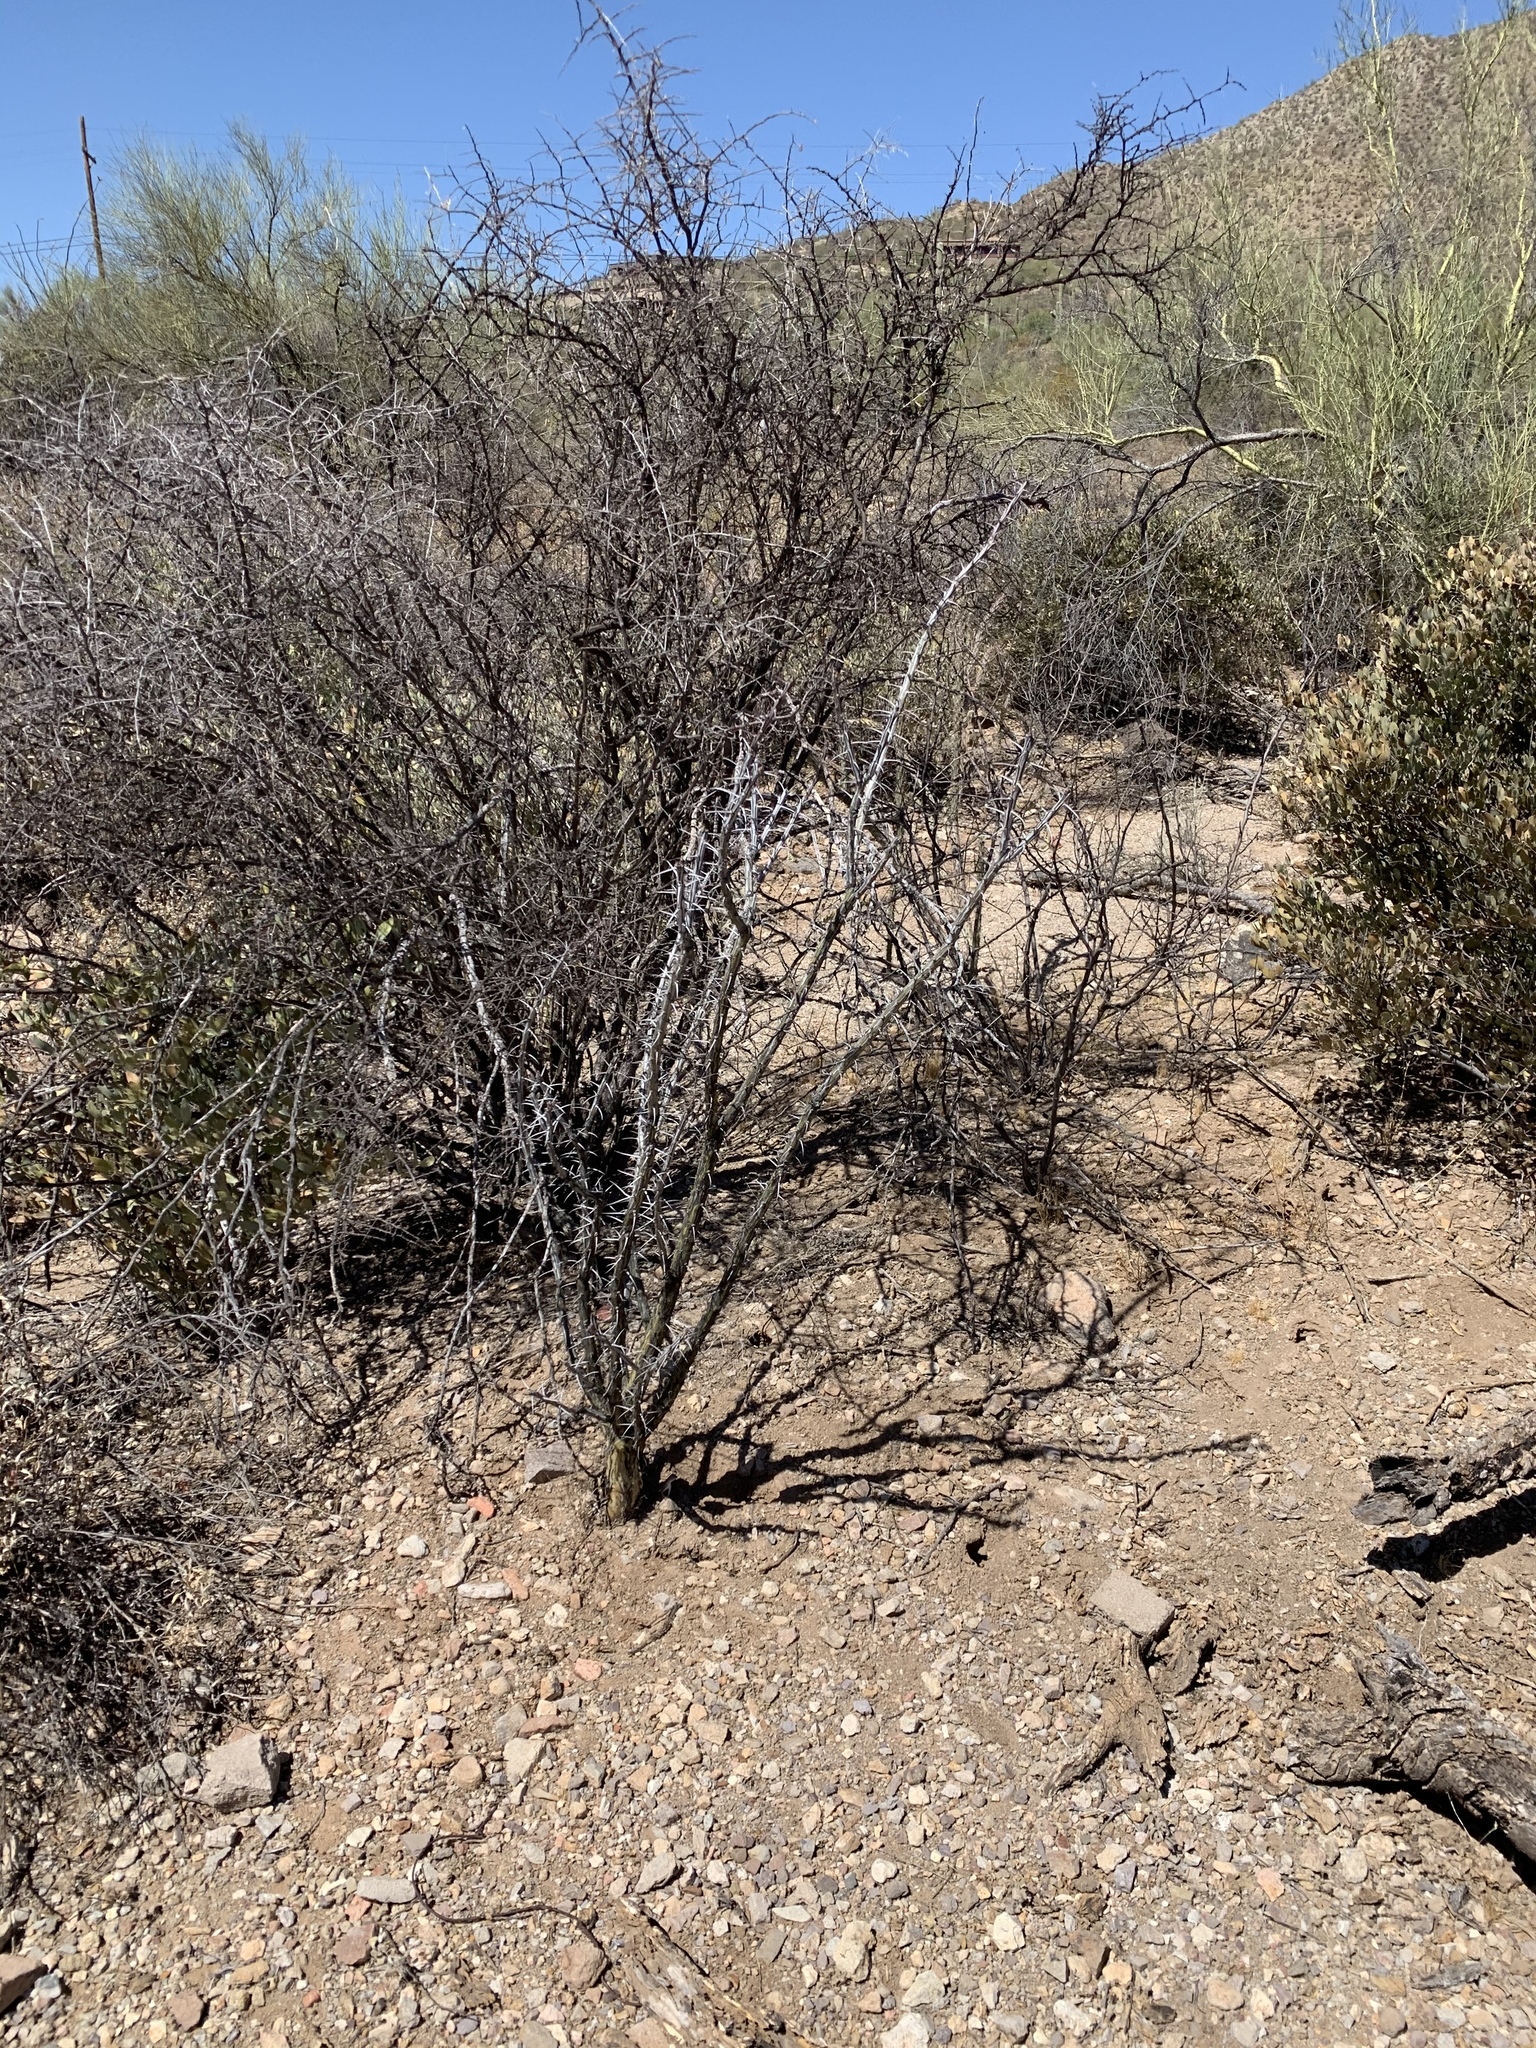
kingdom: Plantae
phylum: Tracheophyta
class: Magnoliopsida
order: Ericales
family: Fouquieriaceae
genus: Fouquieria
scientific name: Fouquieria splendens
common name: Vine-cactus
